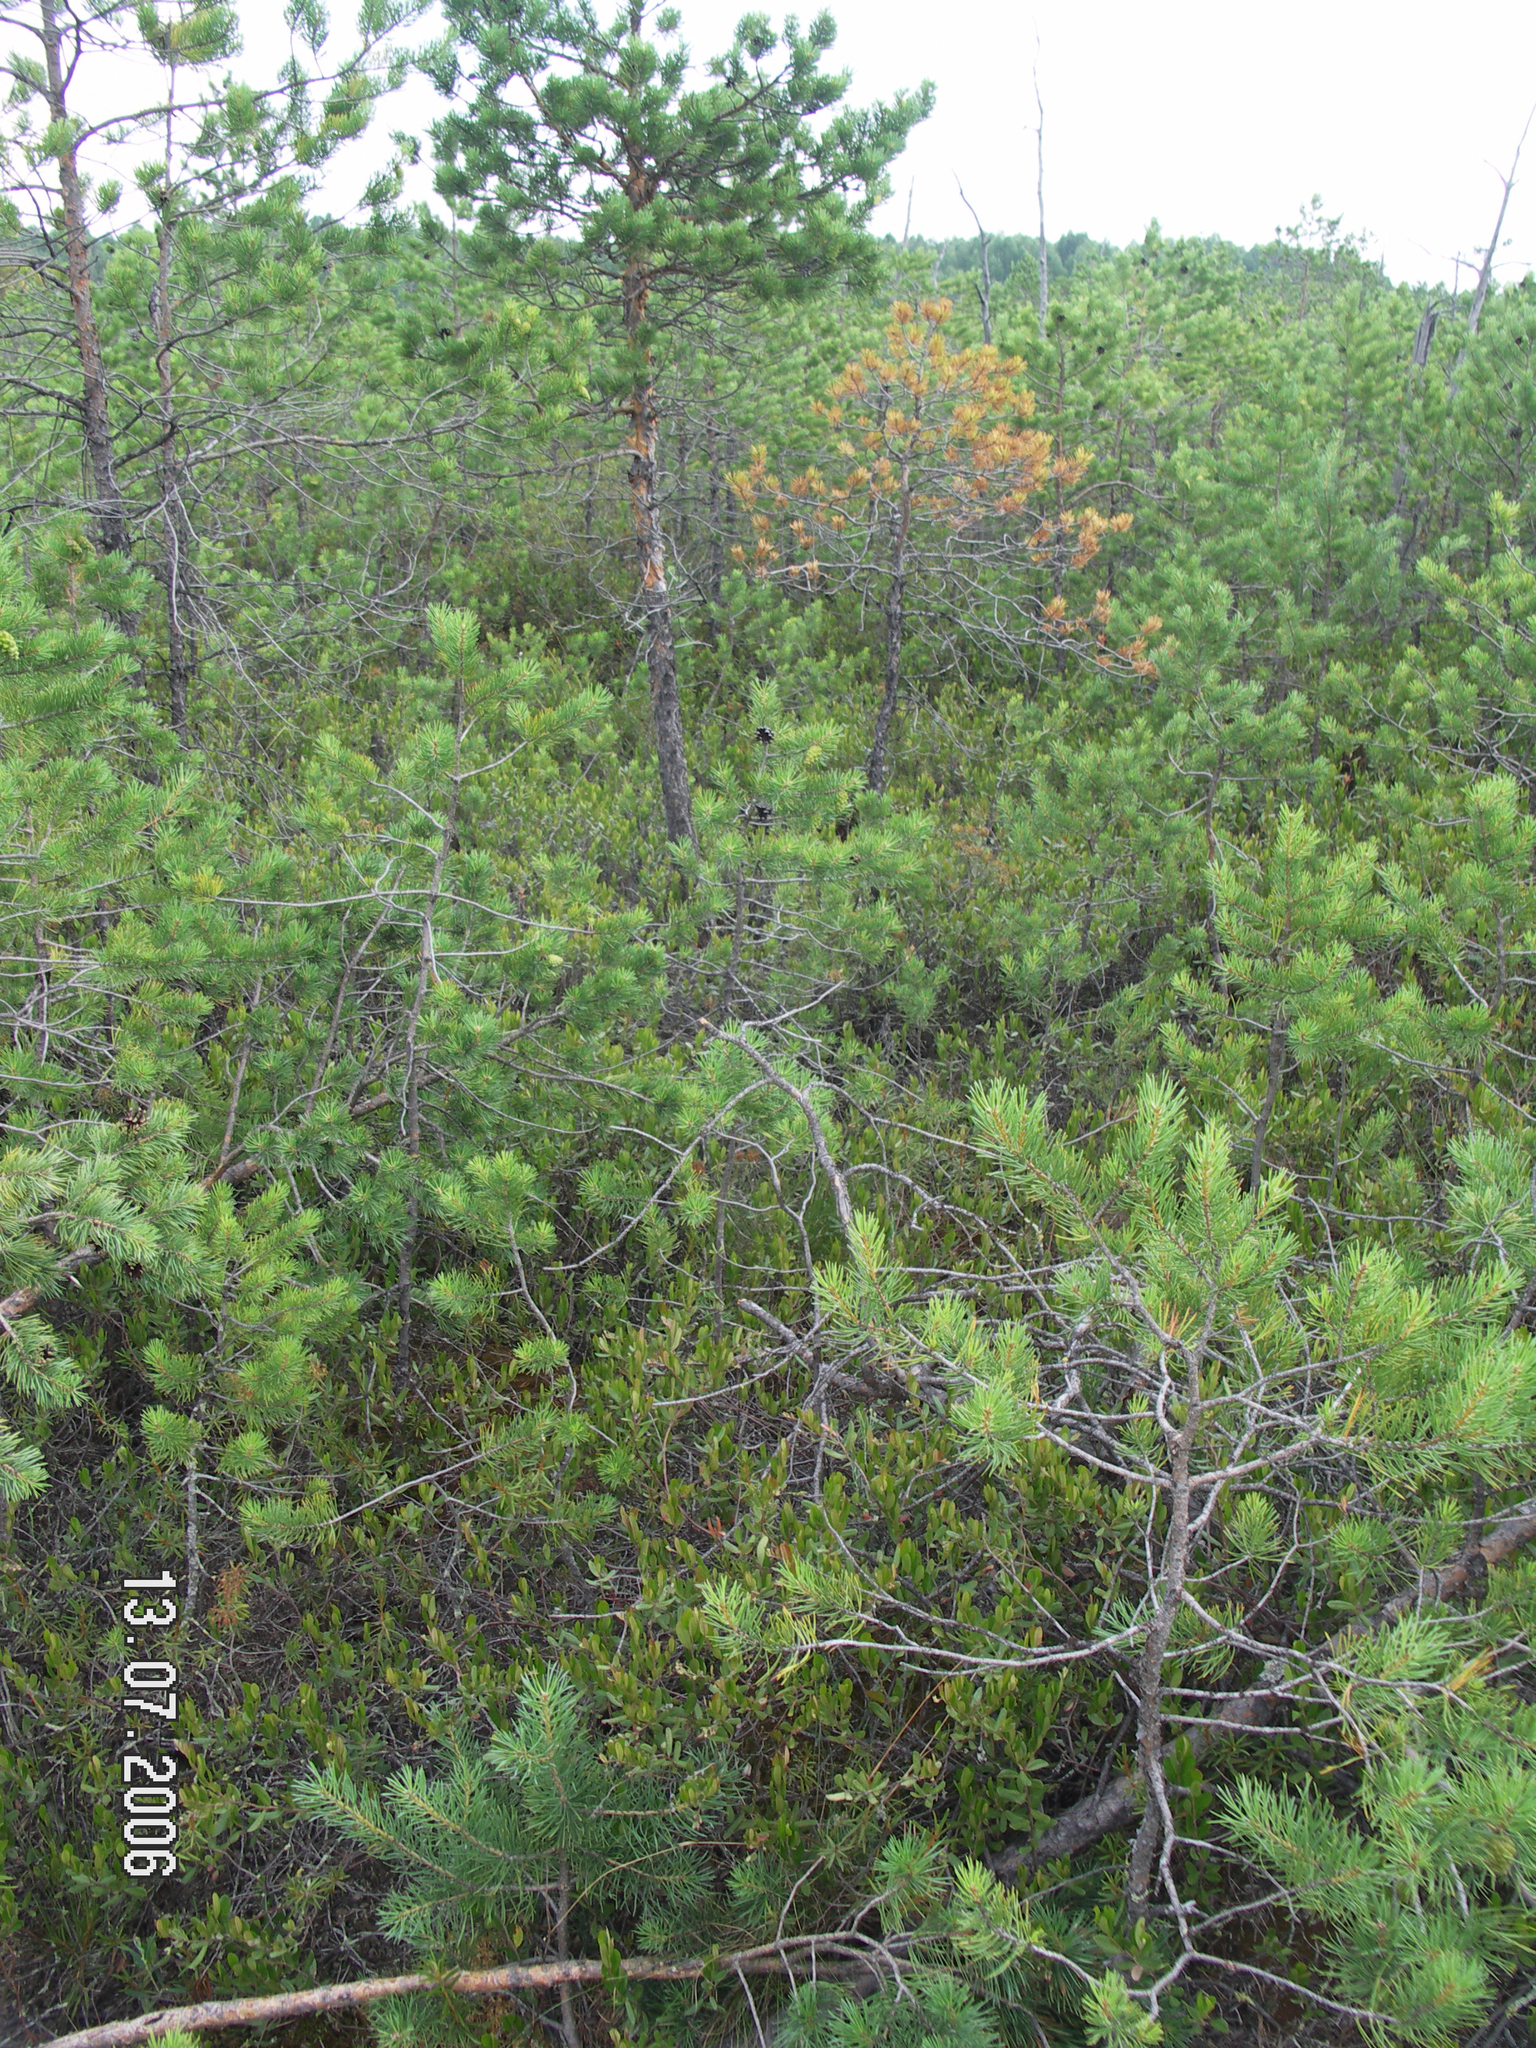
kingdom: Plantae
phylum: Tracheophyta
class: Pinopsida
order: Pinales
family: Pinaceae
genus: Pinus
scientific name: Pinus sylvestris
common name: Scots pine
